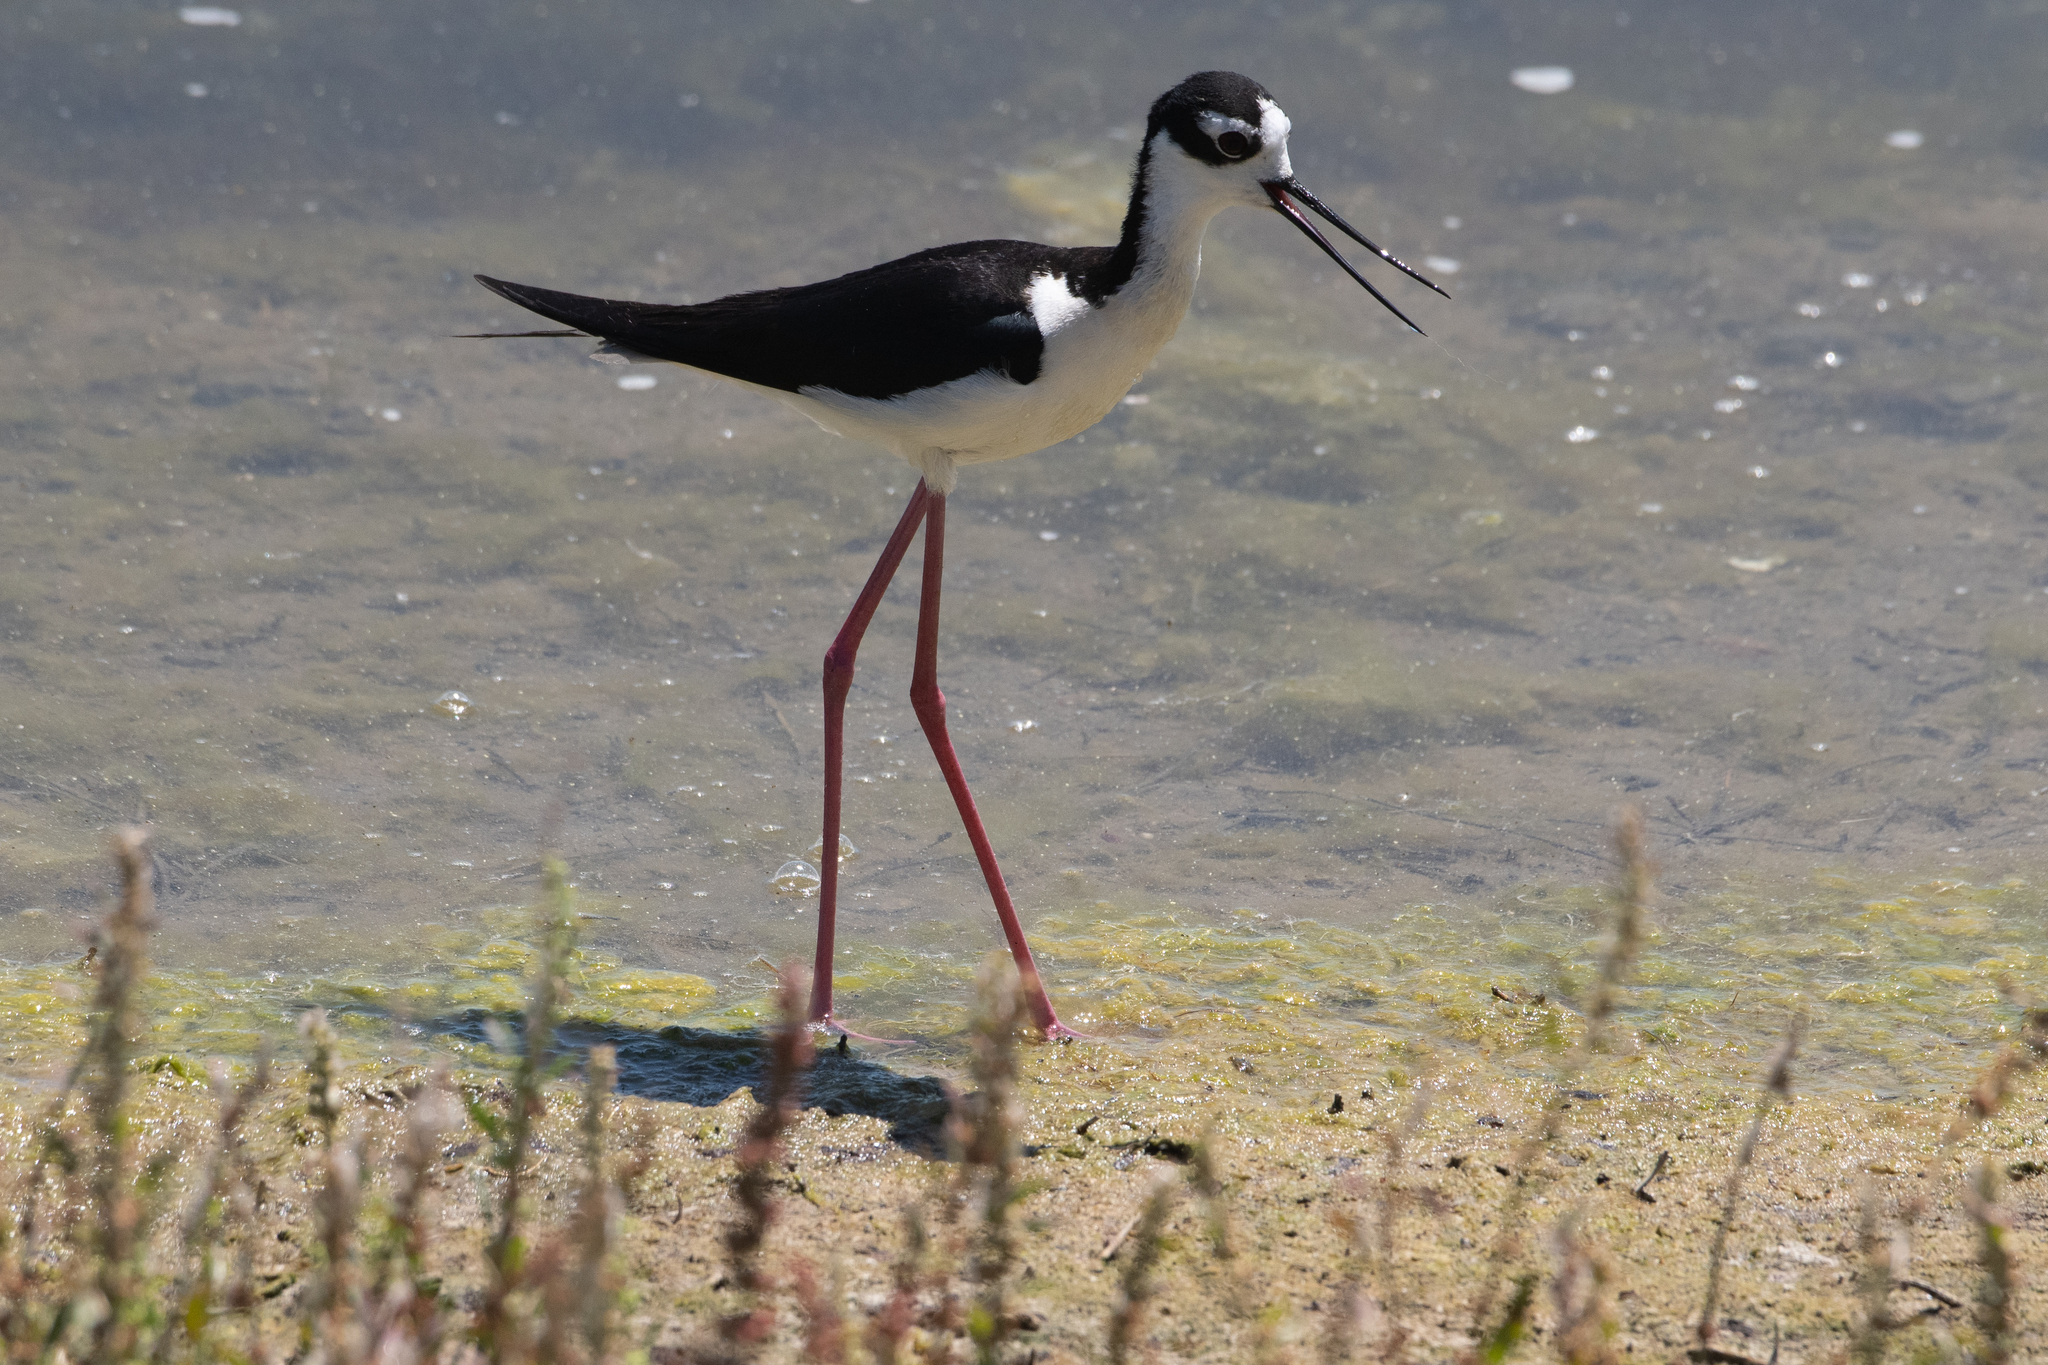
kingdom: Animalia
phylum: Chordata
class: Aves
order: Charadriiformes
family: Recurvirostridae
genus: Himantopus
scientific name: Himantopus mexicanus
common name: Black-necked stilt
